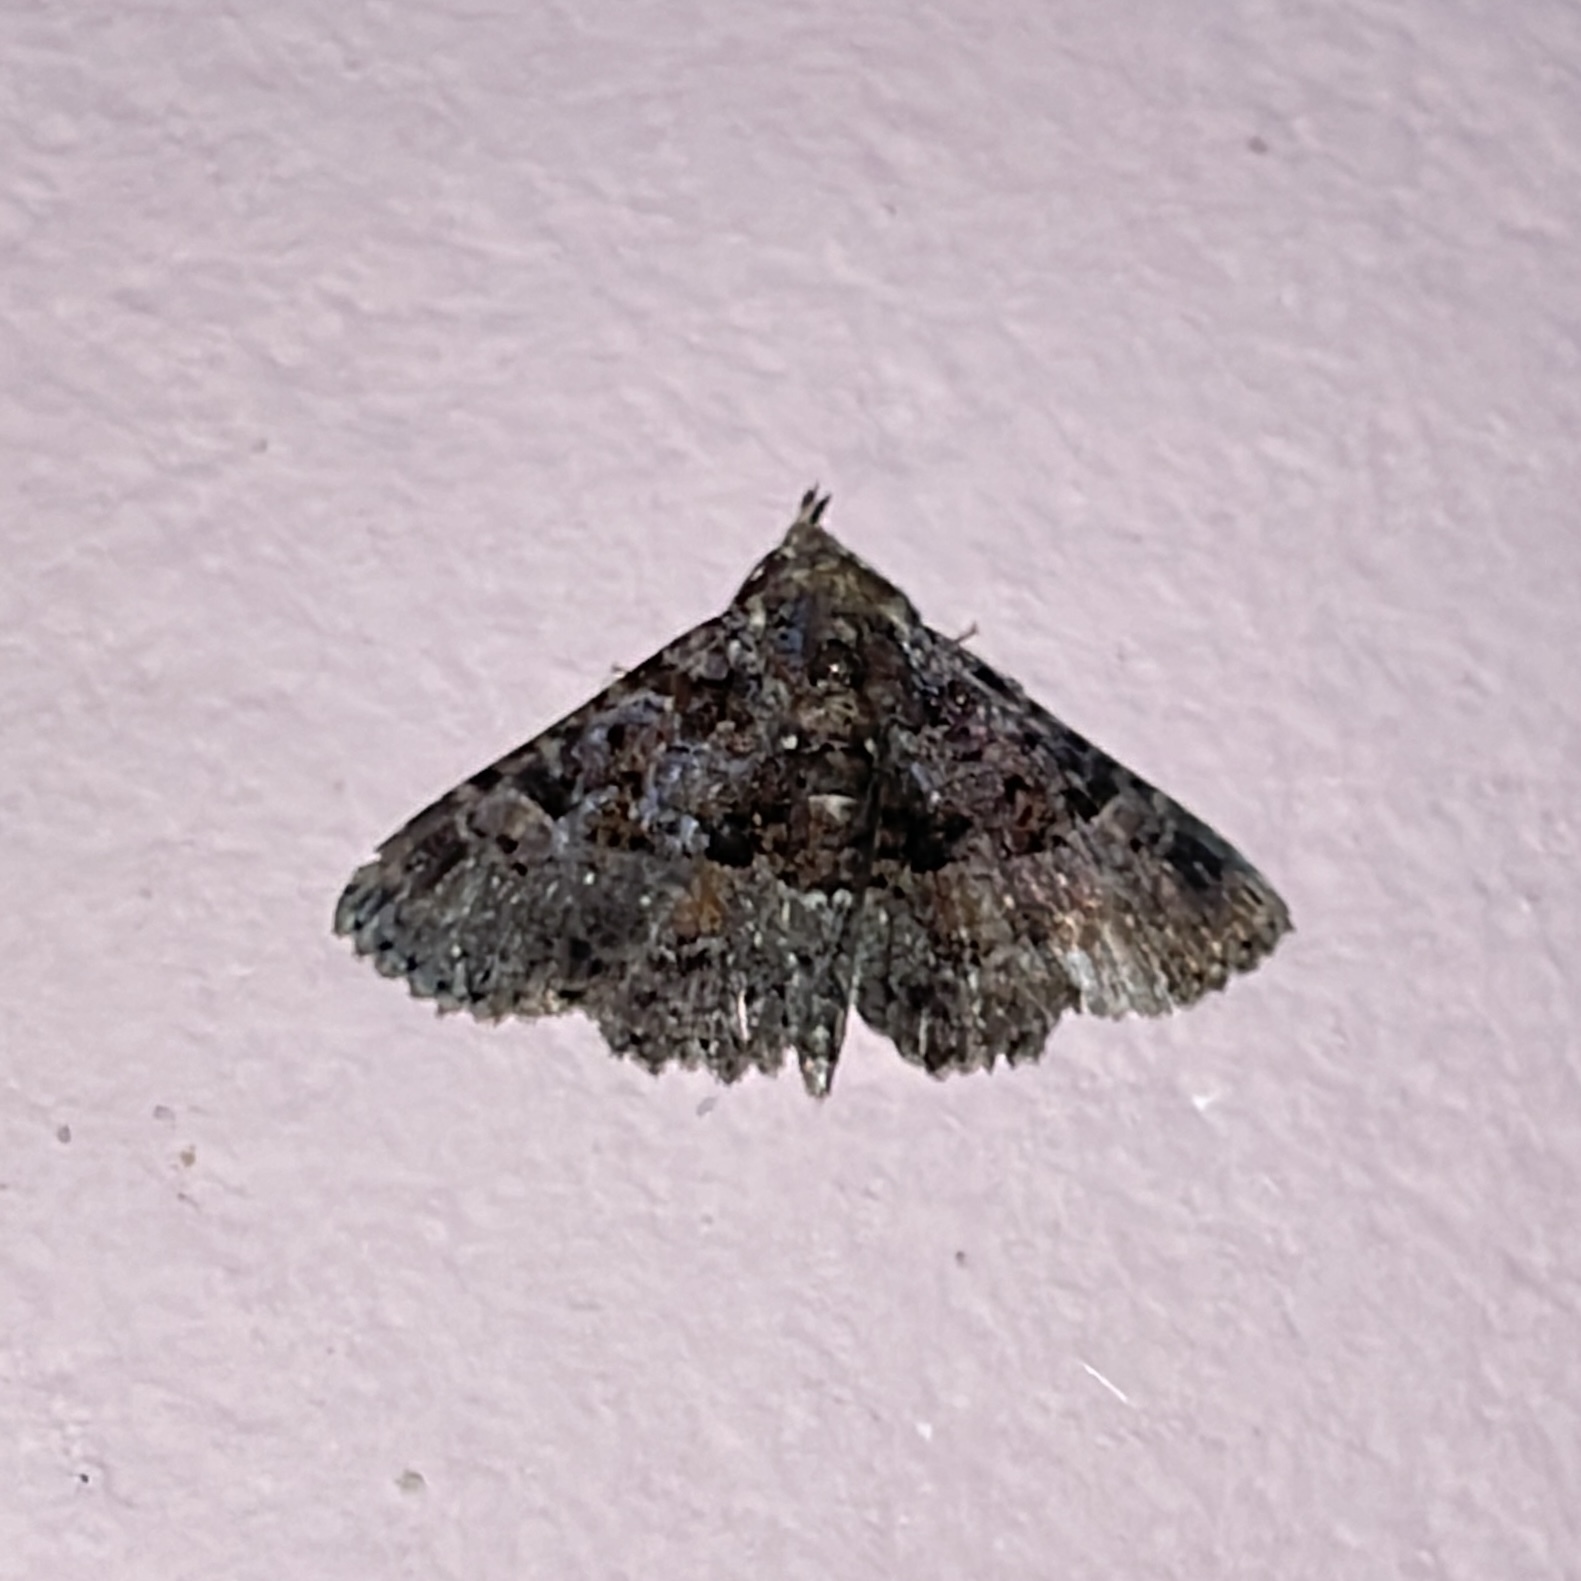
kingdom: Animalia
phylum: Arthropoda
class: Insecta
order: Lepidoptera
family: Erebidae
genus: Metalectra
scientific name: Metalectra praecisalis
